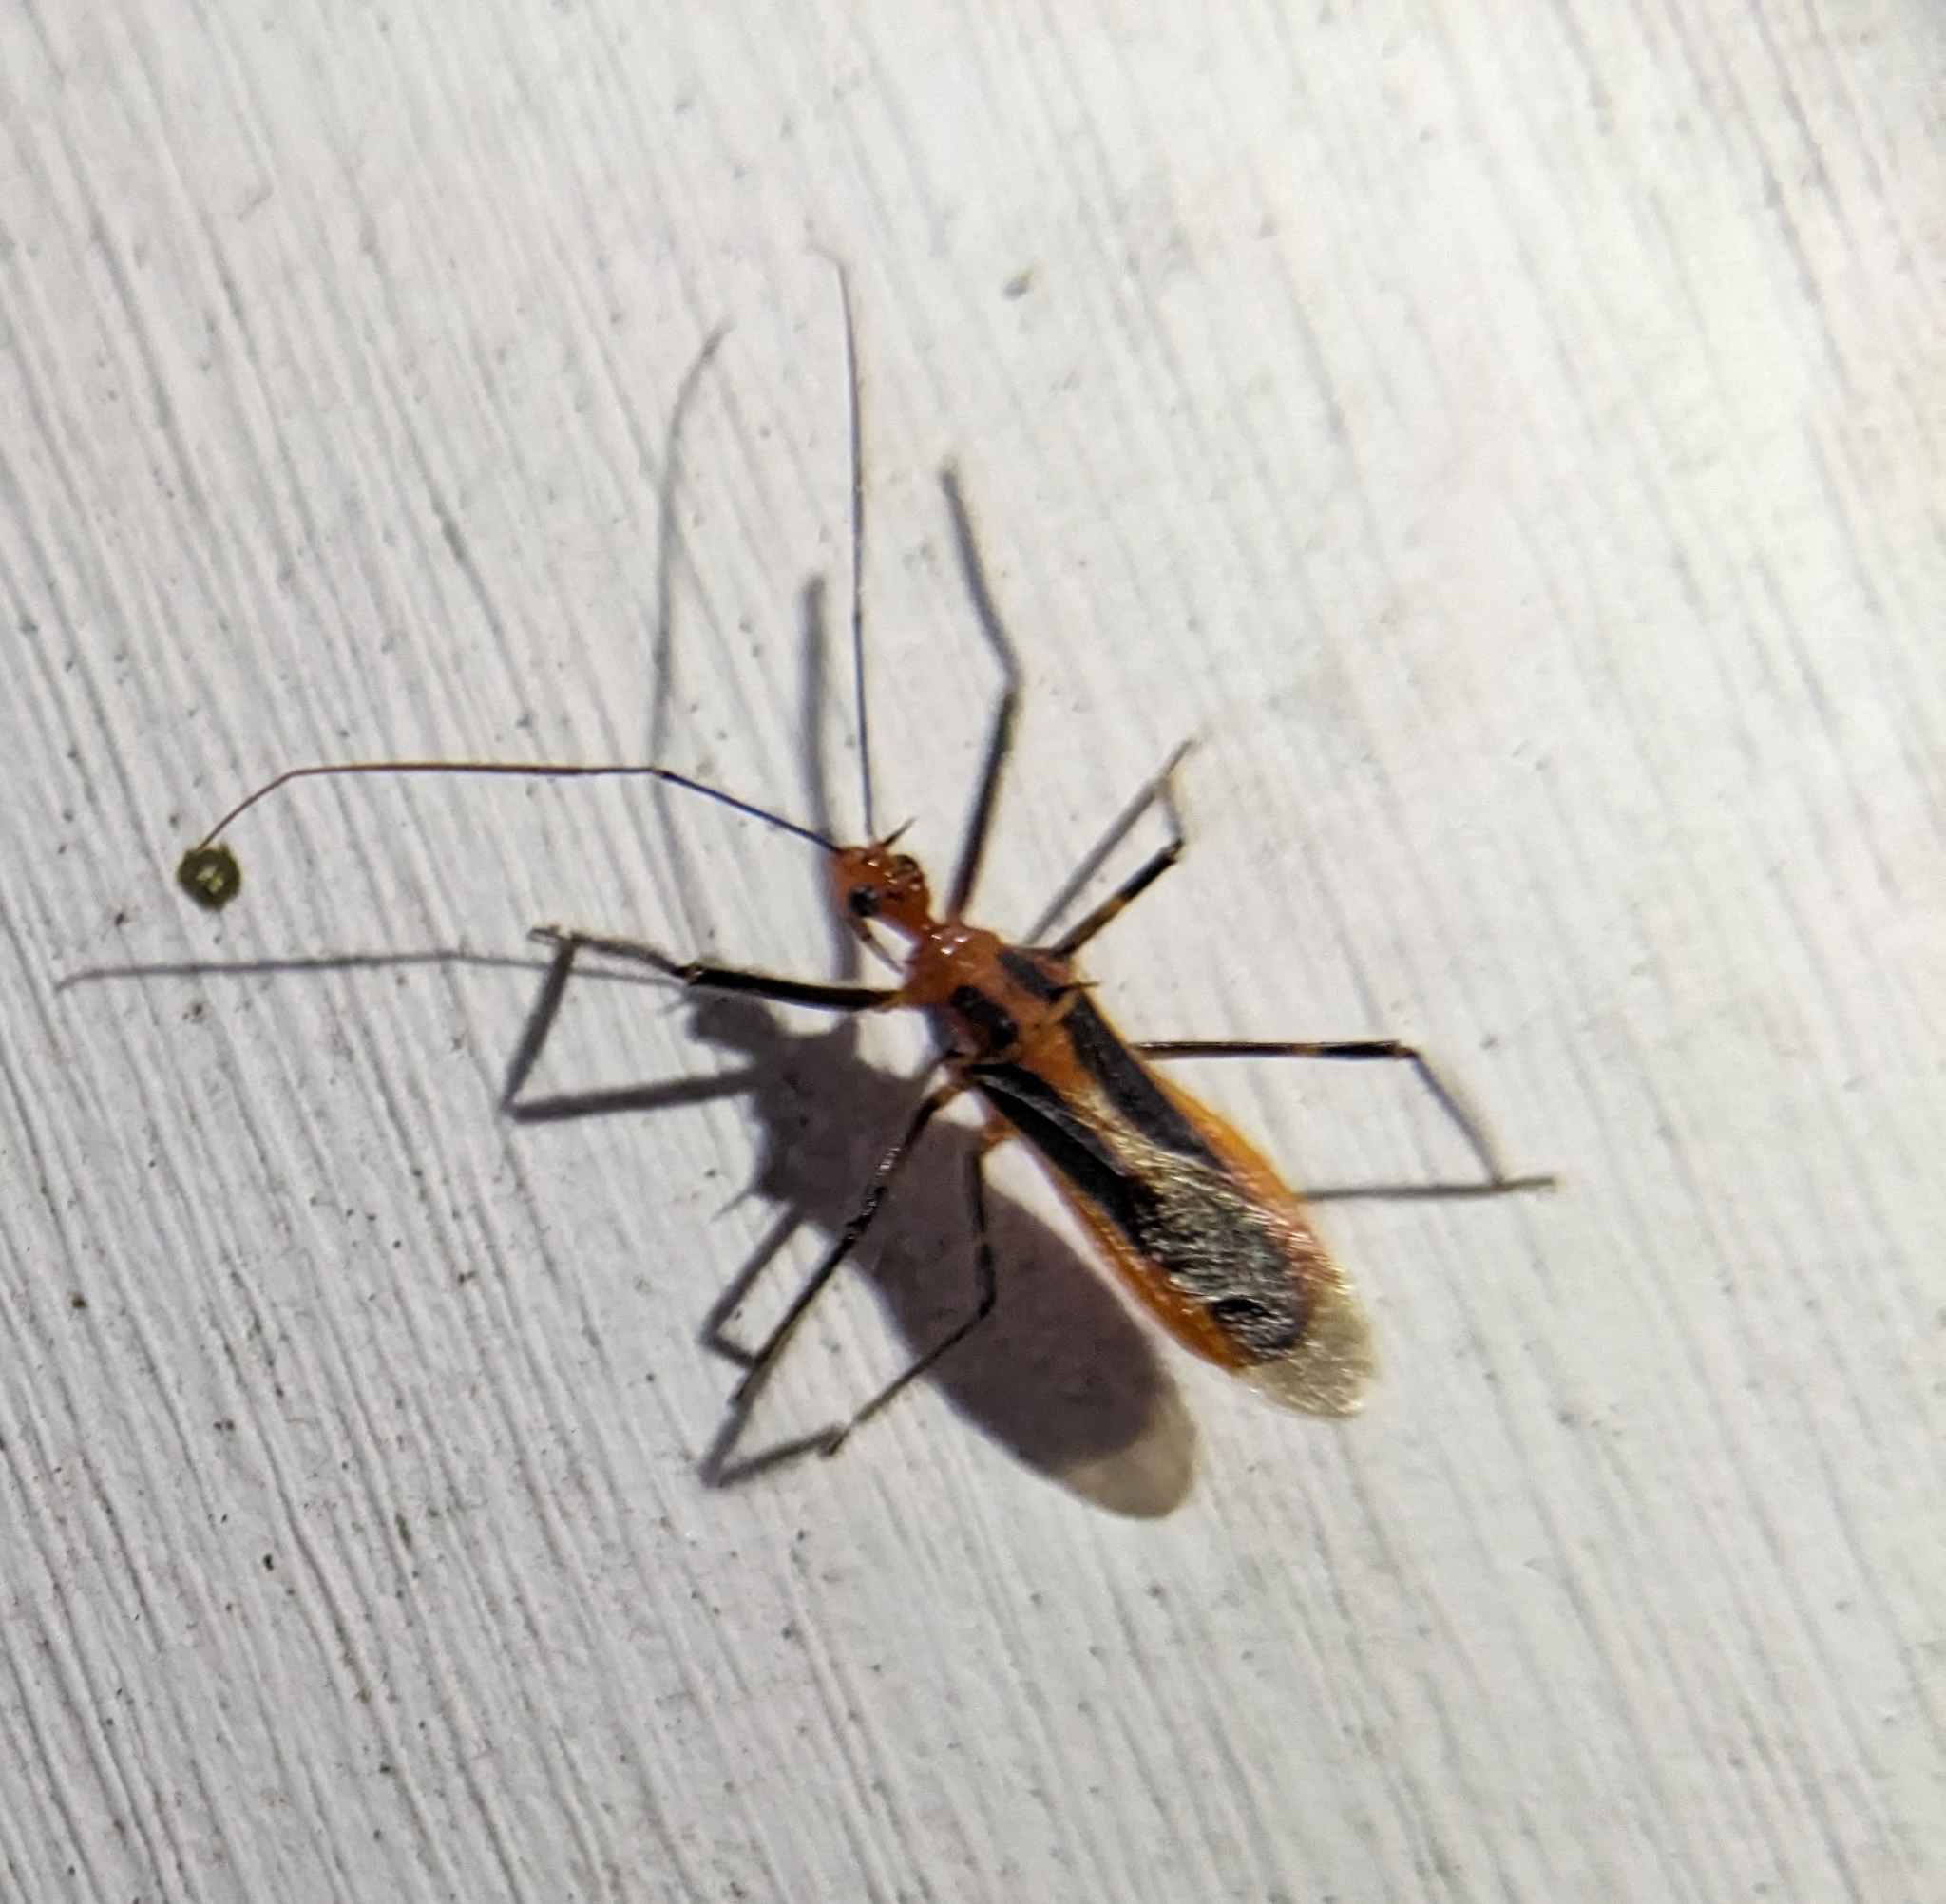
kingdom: Animalia
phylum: Arthropoda
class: Insecta
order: Hemiptera
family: Reduviidae
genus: Repipta
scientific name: Repipta taurus
